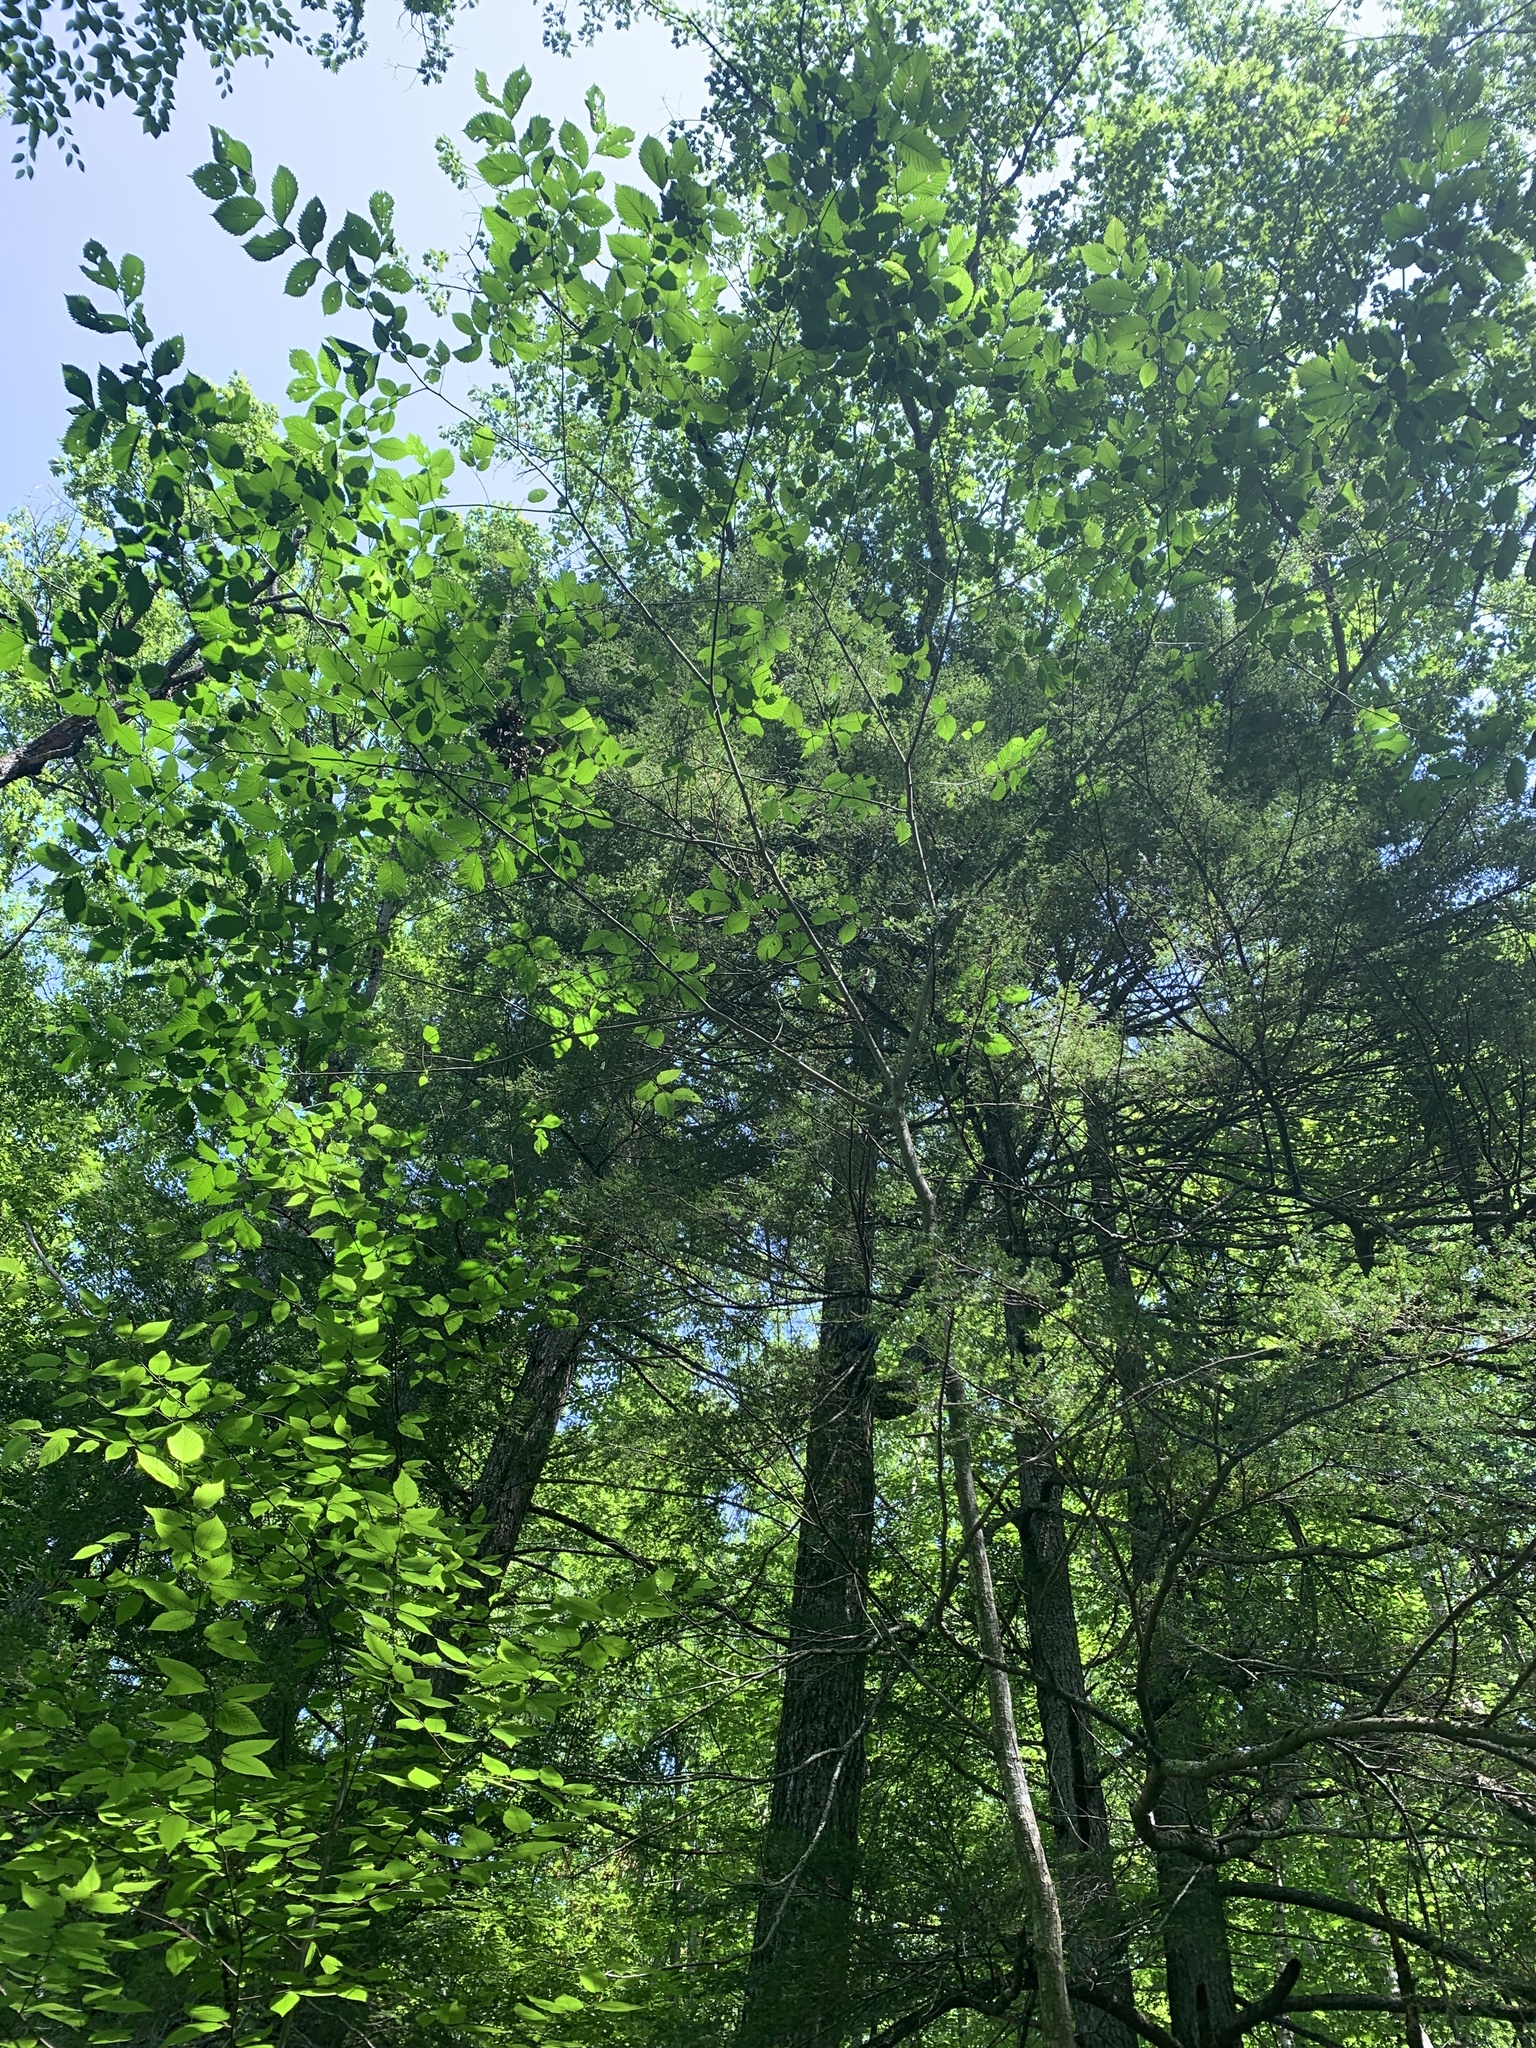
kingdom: Plantae
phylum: Tracheophyta
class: Magnoliopsida
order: Rosales
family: Ulmaceae
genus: Ulmus
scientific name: Ulmus americana
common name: American elm
